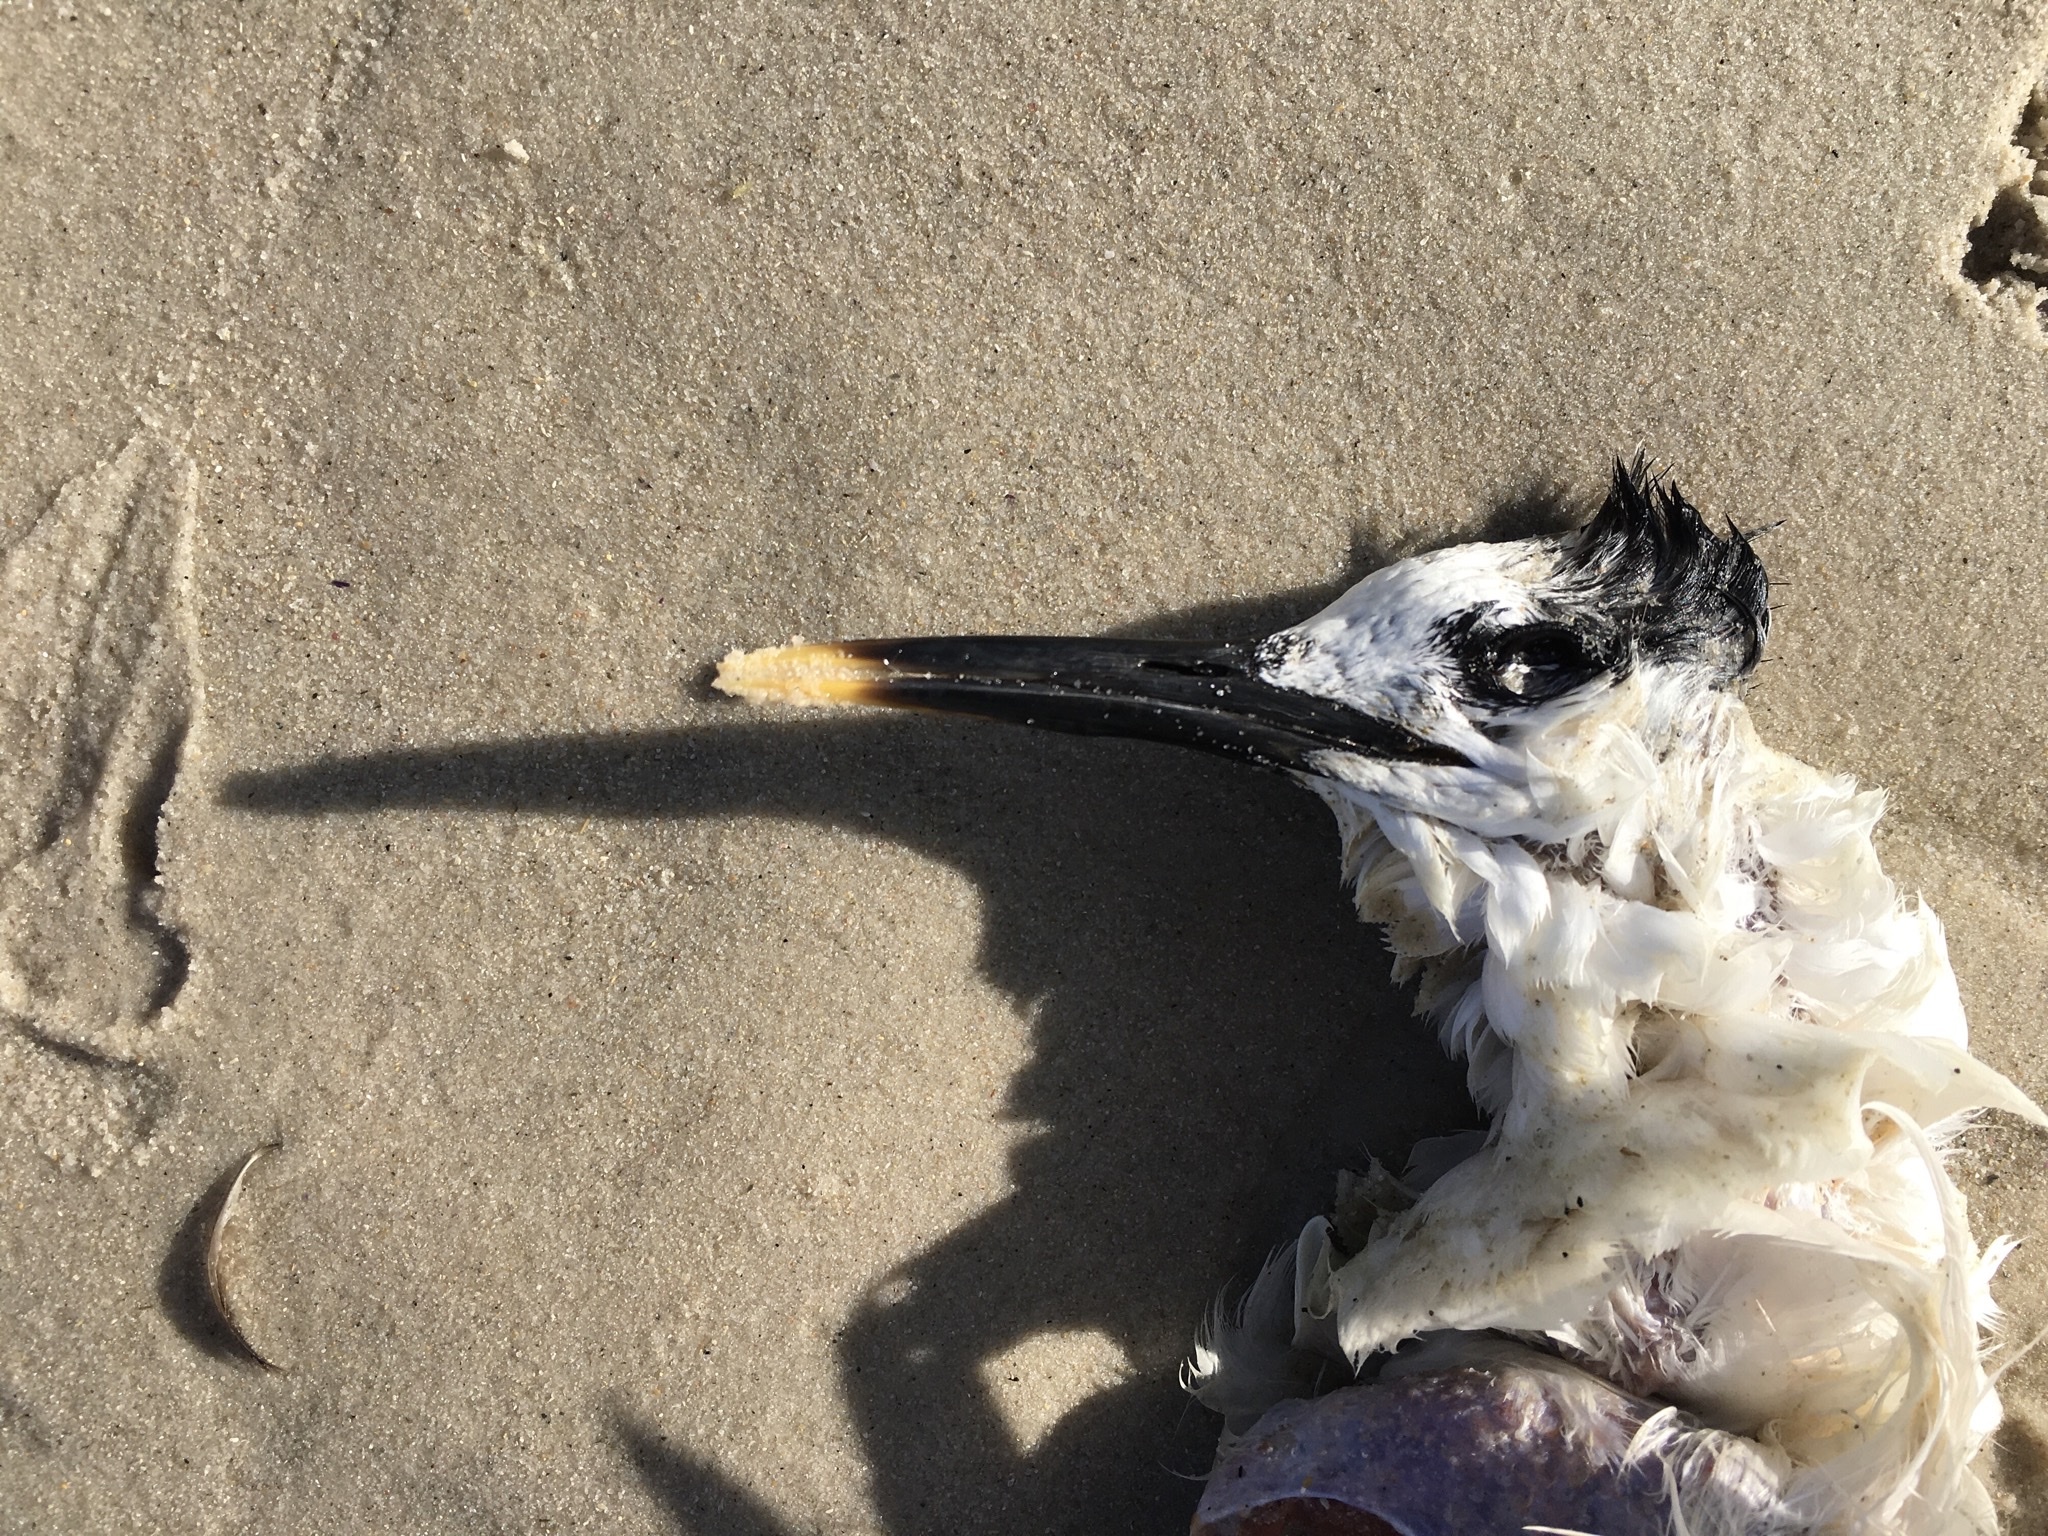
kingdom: Animalia
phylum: Chordata
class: Aves
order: Charadriiformes
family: Laridae
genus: Thalasseus
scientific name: Thalasseus sandvicensis
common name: Sandwich tern
